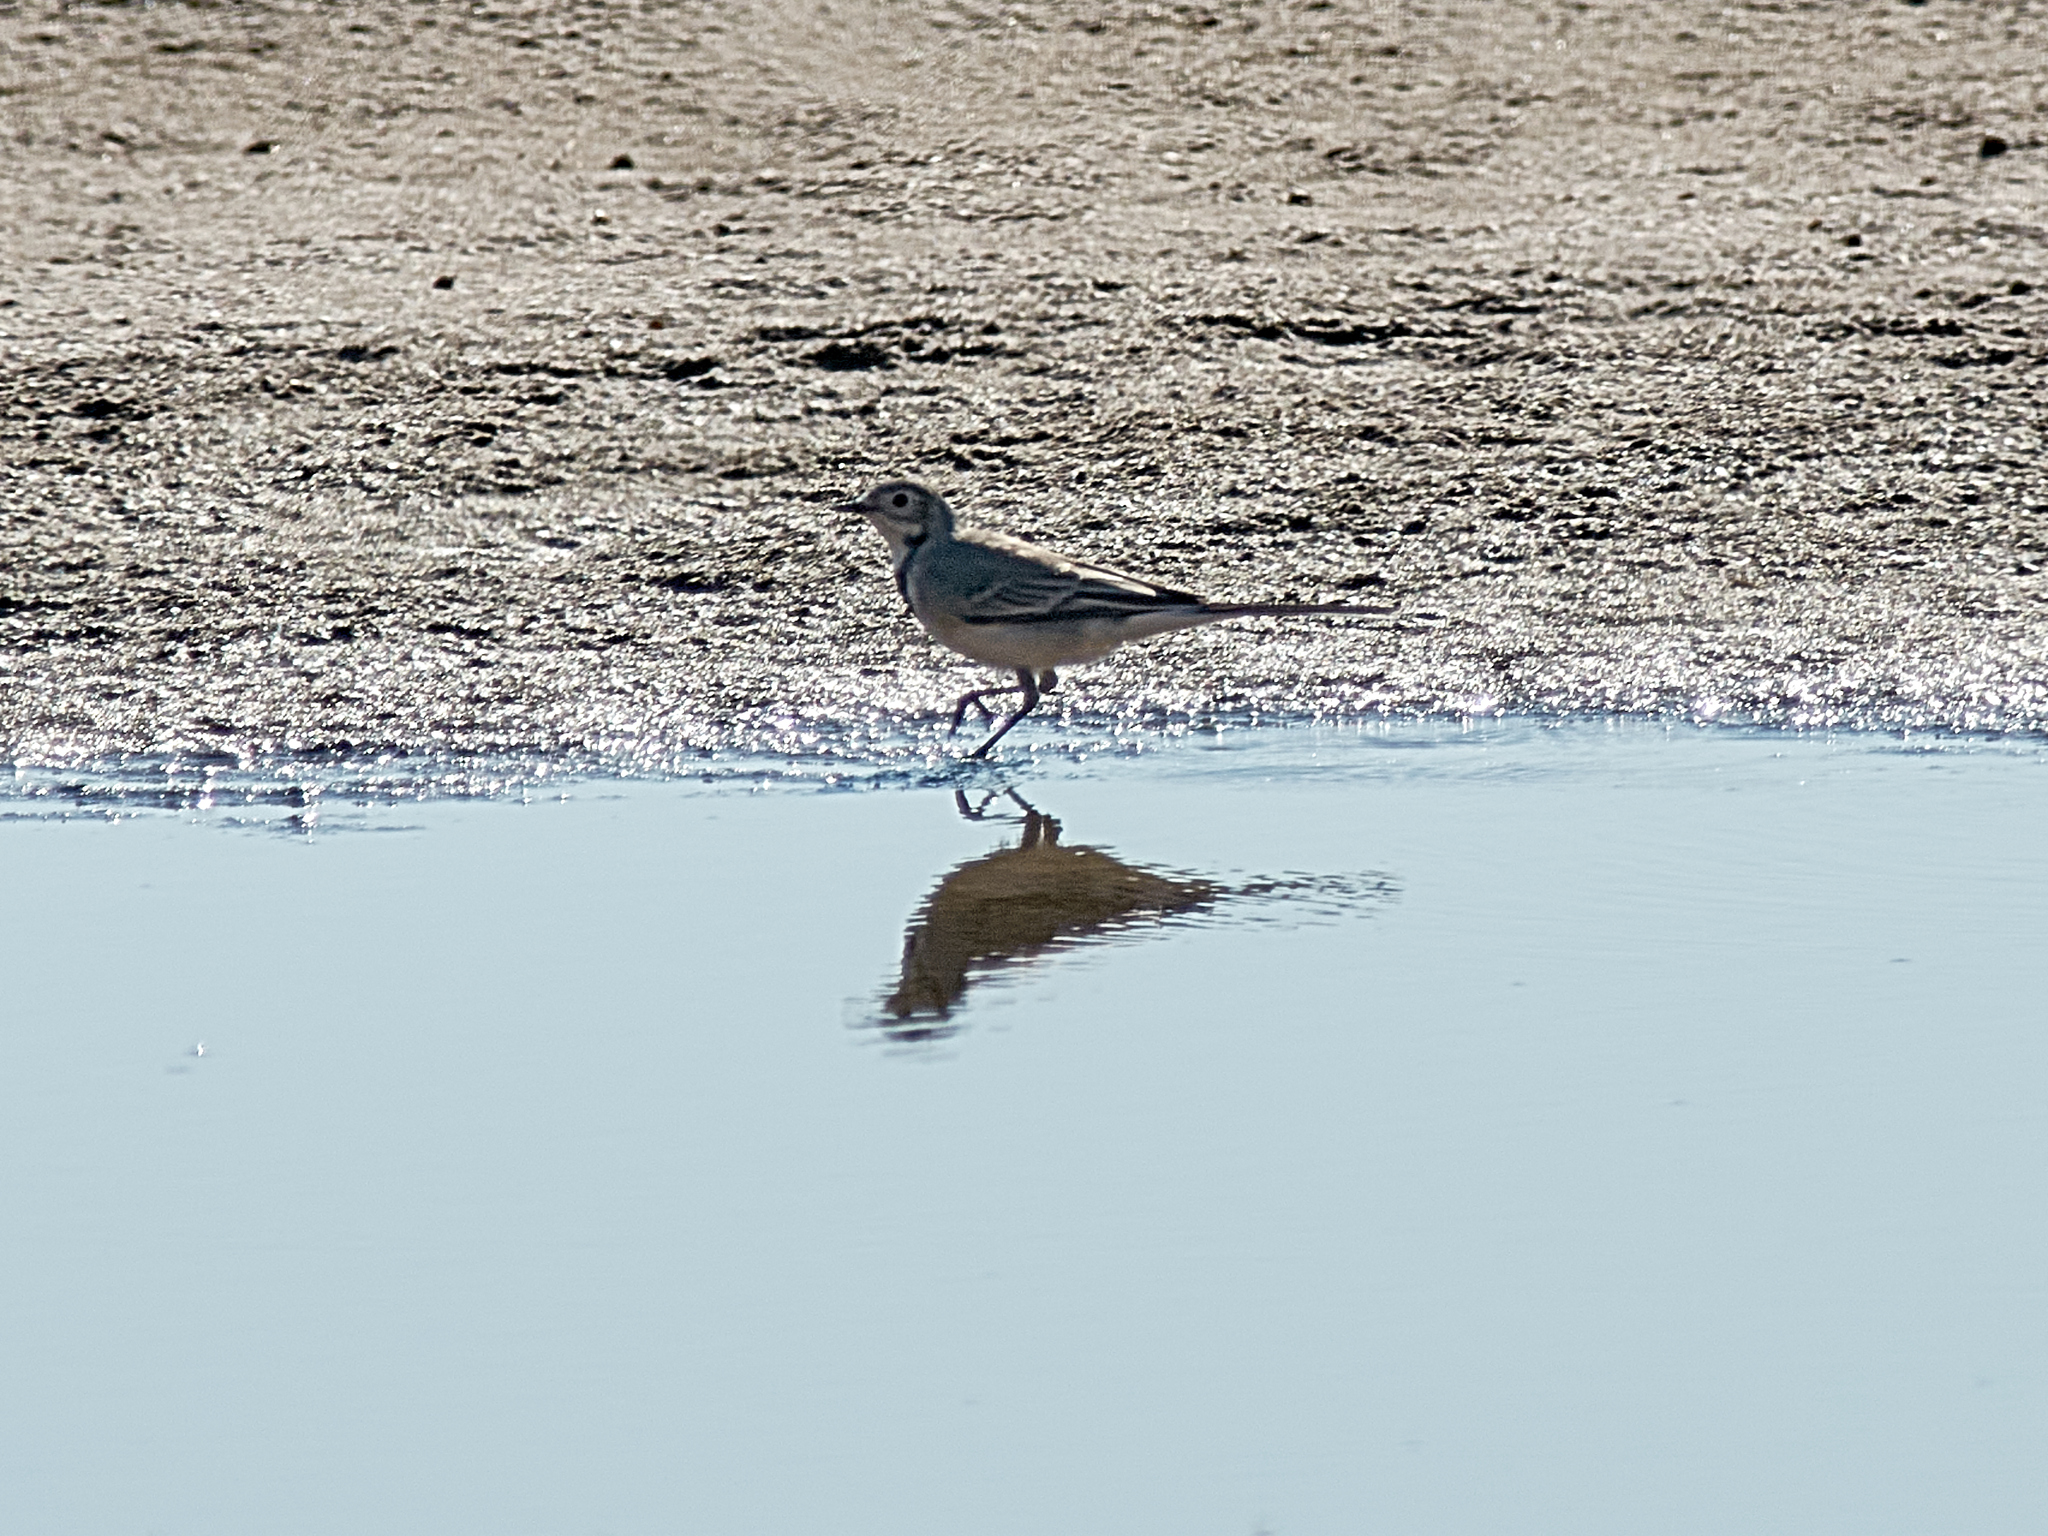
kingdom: Animalia
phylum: Chordata
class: Aves
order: Passeriformes
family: Motacillidae
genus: Motacilla
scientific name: Motacilla alba
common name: White wagtail
